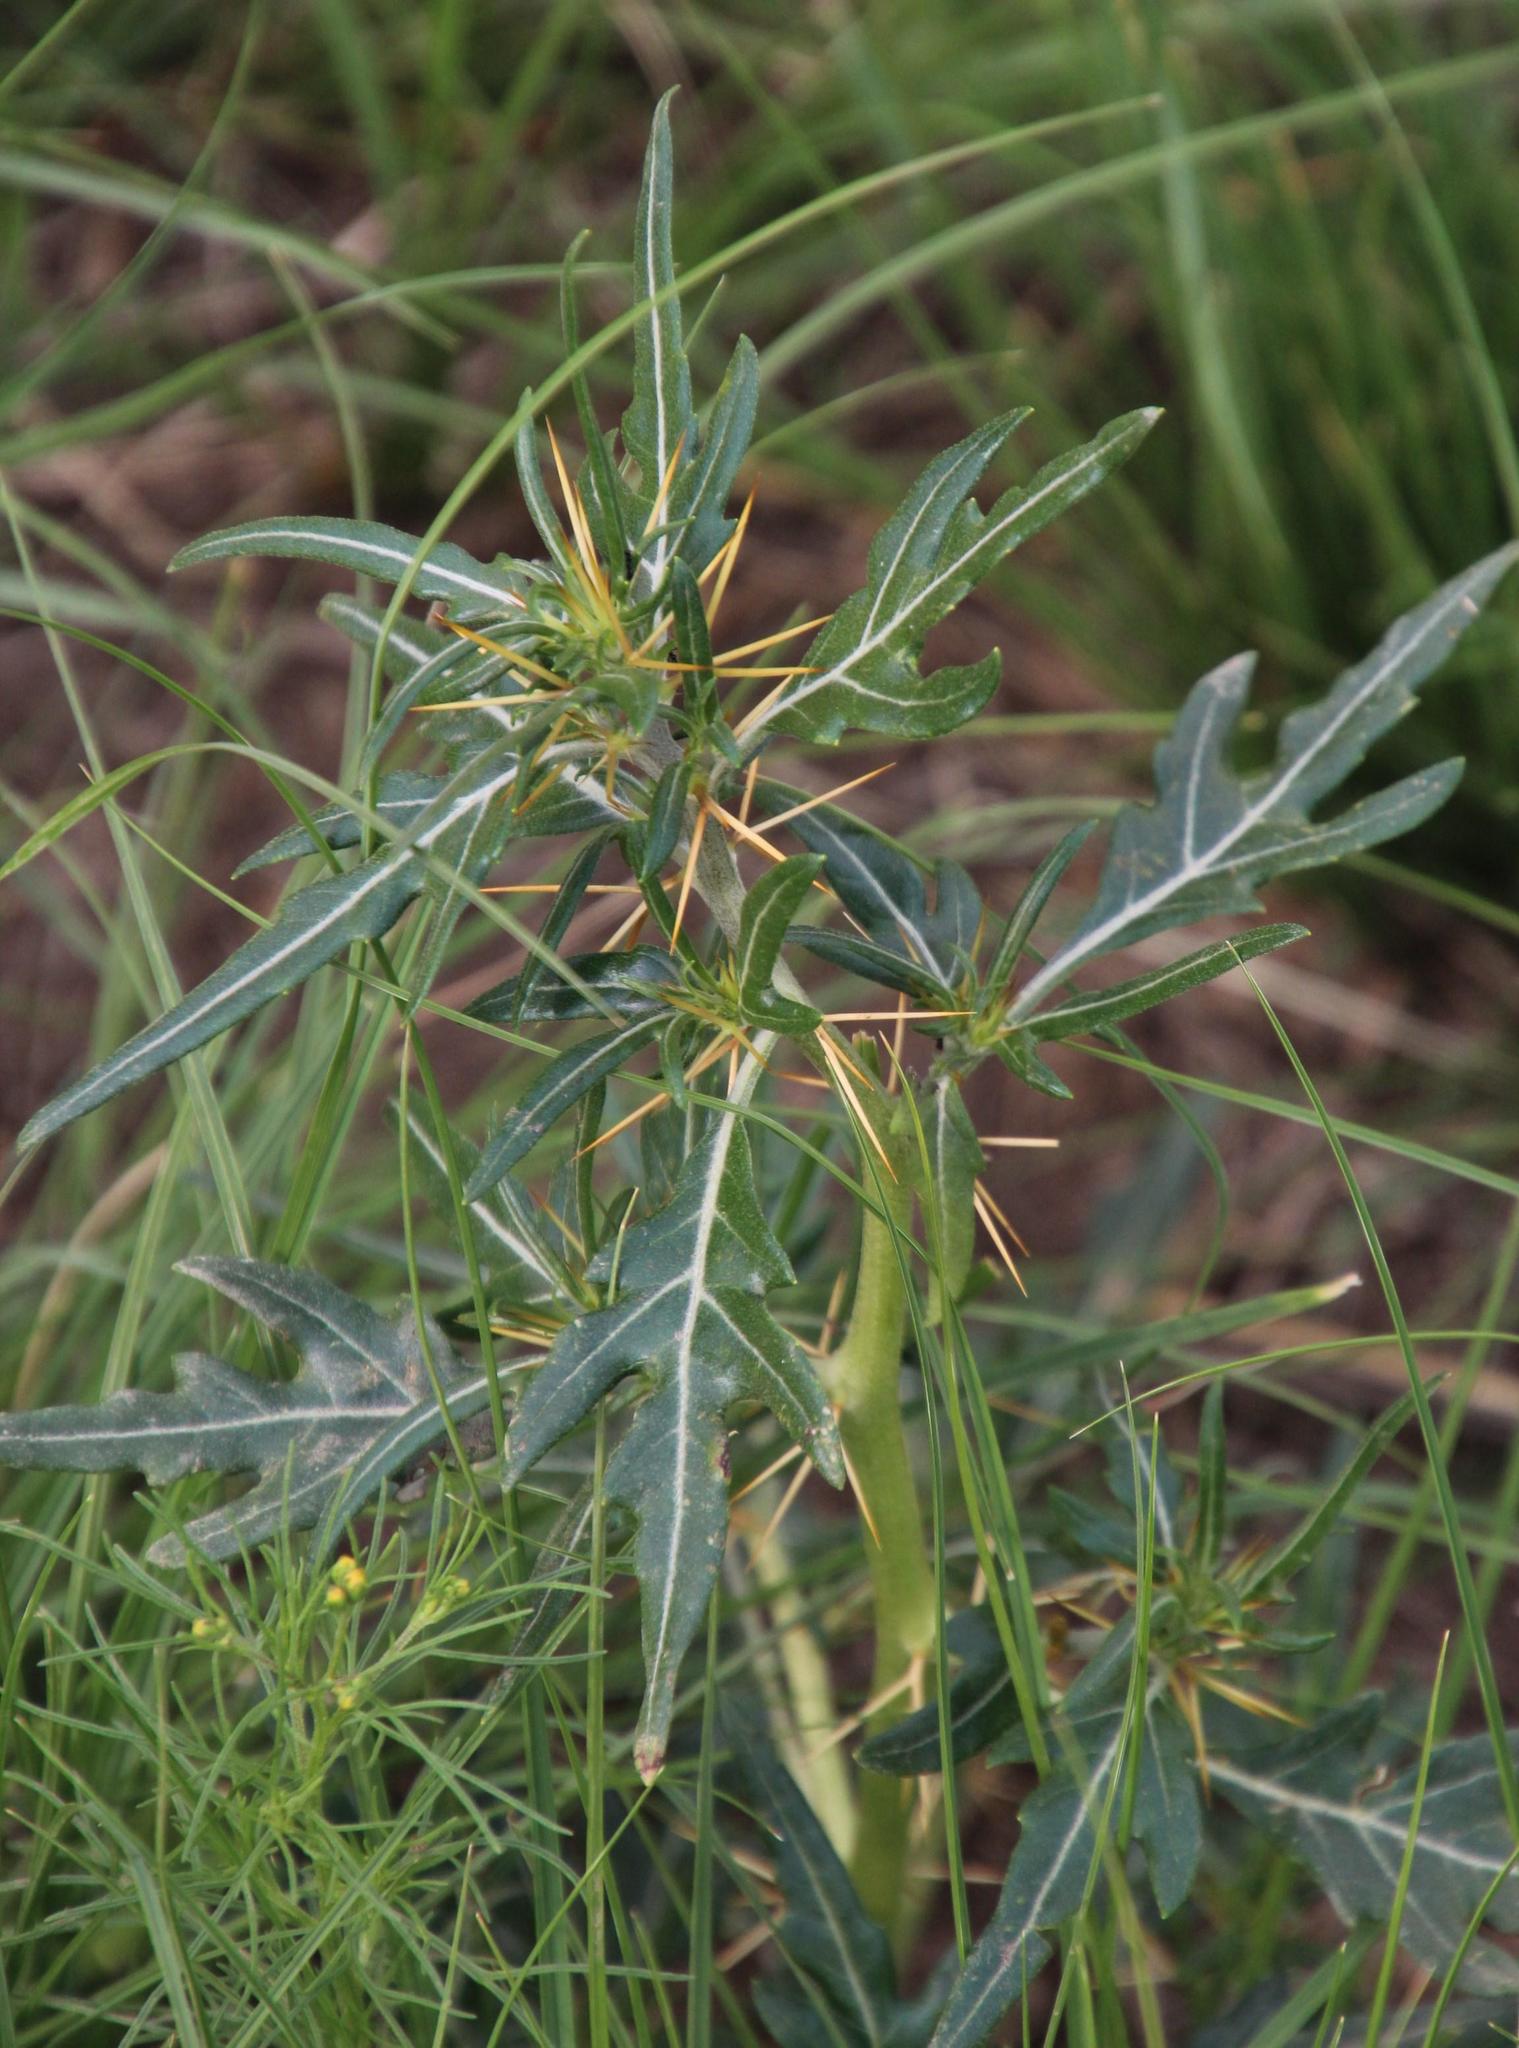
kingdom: Plantae
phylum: Tracheophyta
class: Magnoliopsida
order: Asterales
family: Asteraceae
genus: Xanthium
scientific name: Xanthium spinosum
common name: Spiny cocklebur
